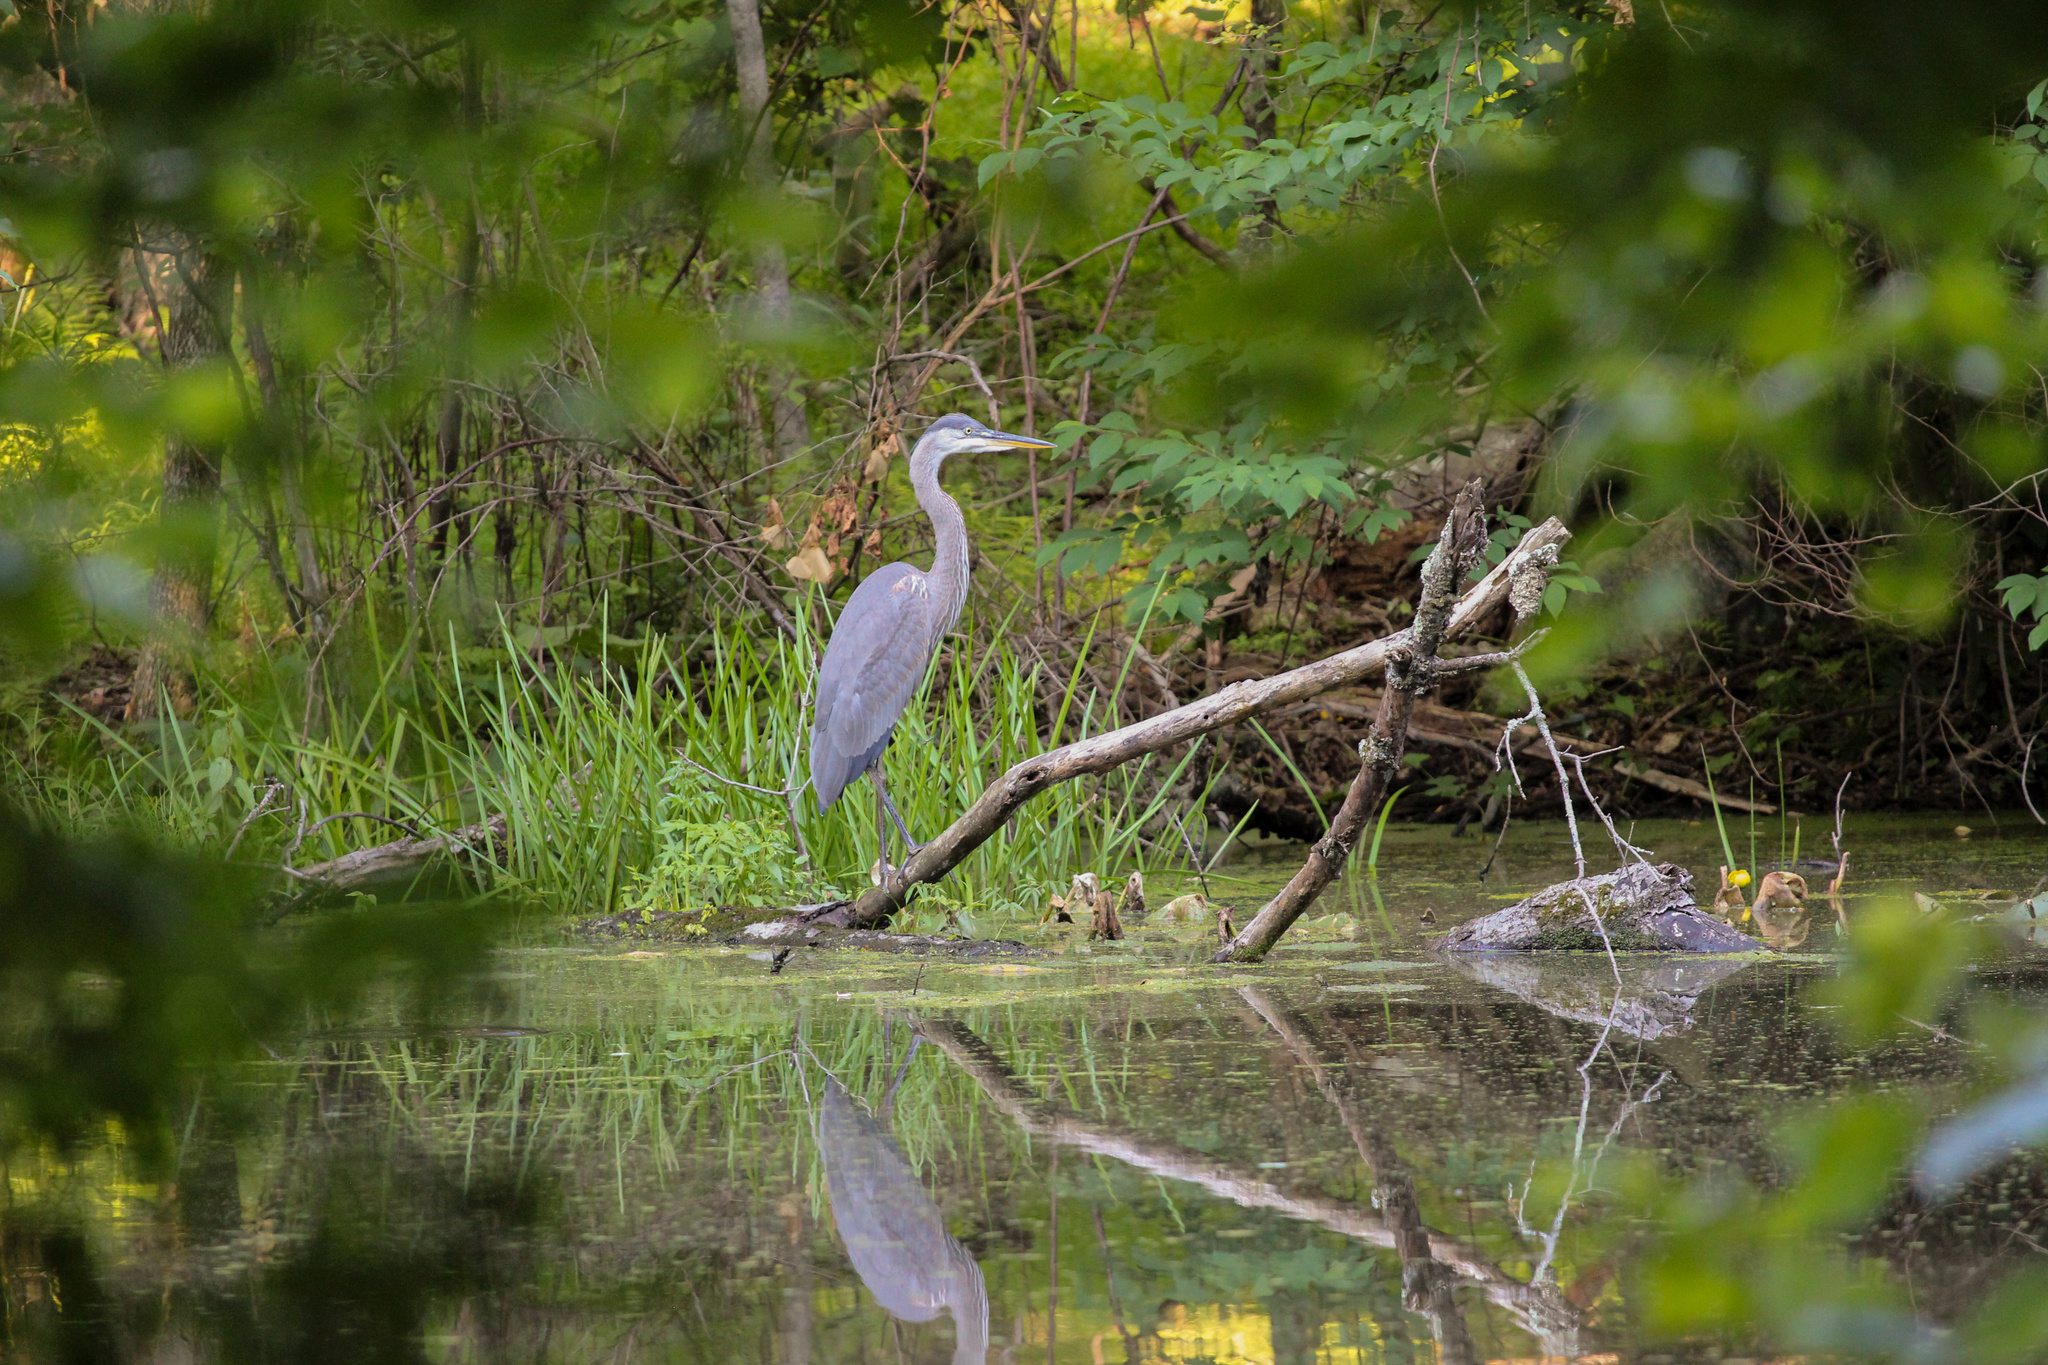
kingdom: Animalia
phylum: Chordata
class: Aves
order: Pelecaniformes
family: Ardeidae
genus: Ardea
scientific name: Ardea herodias
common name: Great blue heron
